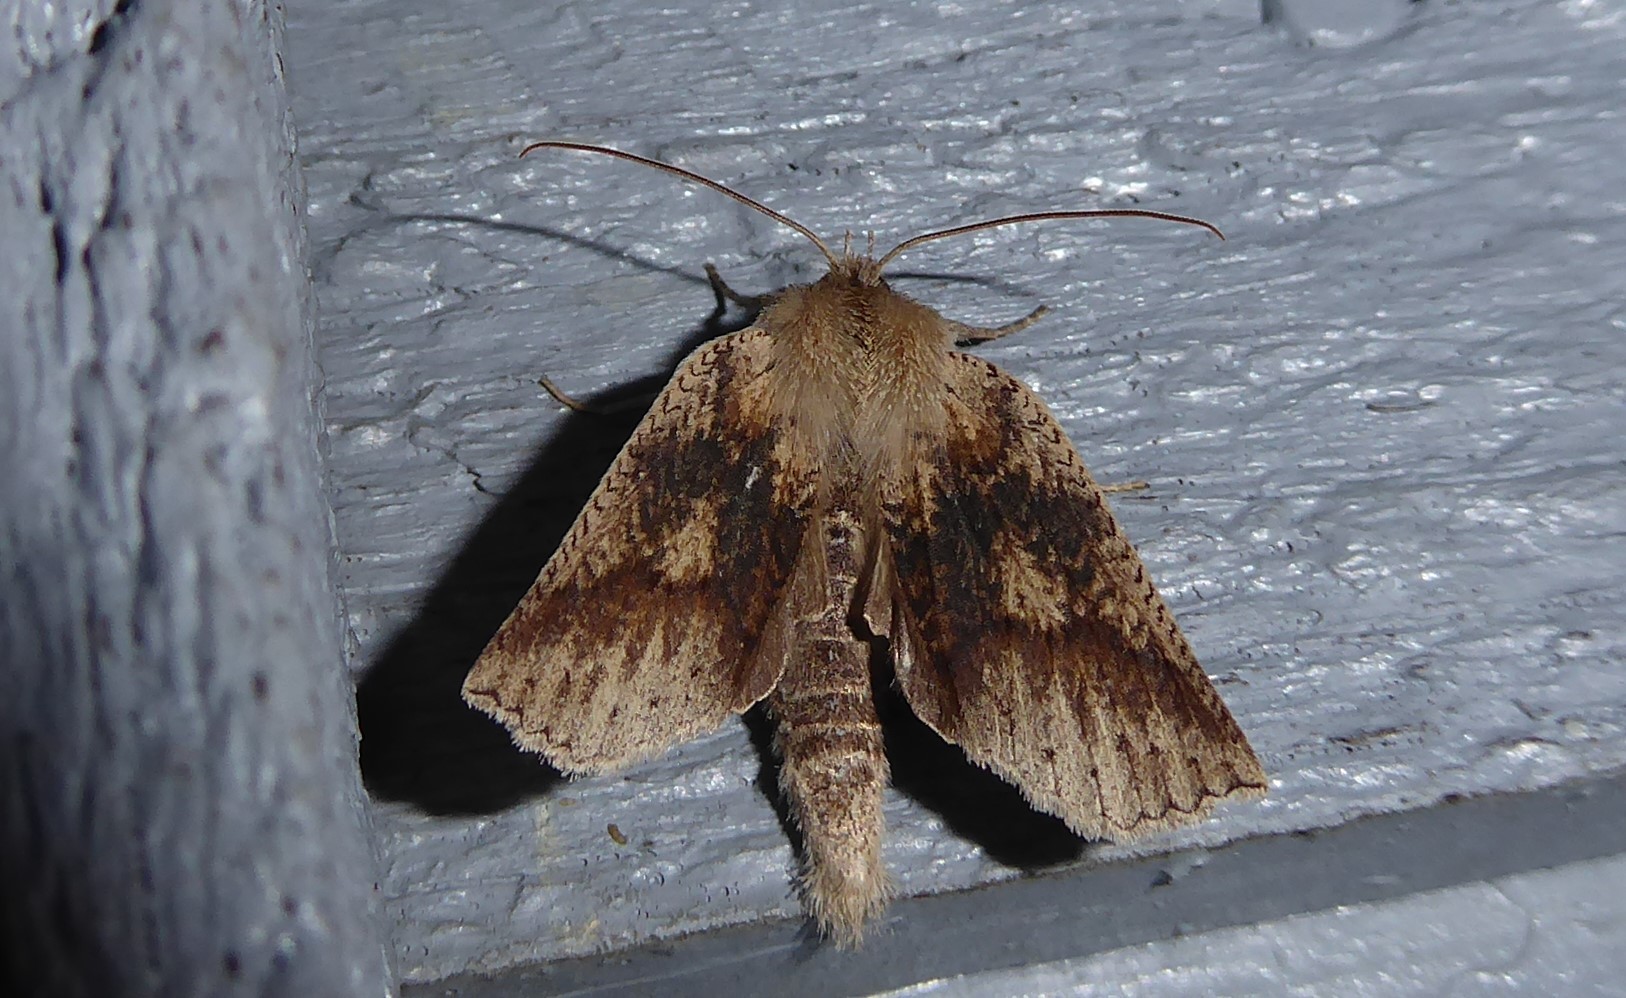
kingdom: Animalia
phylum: Arthropoda
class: Insecta
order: Lepidoptera
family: Geometridae
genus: Declana
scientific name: Declana leptomera
